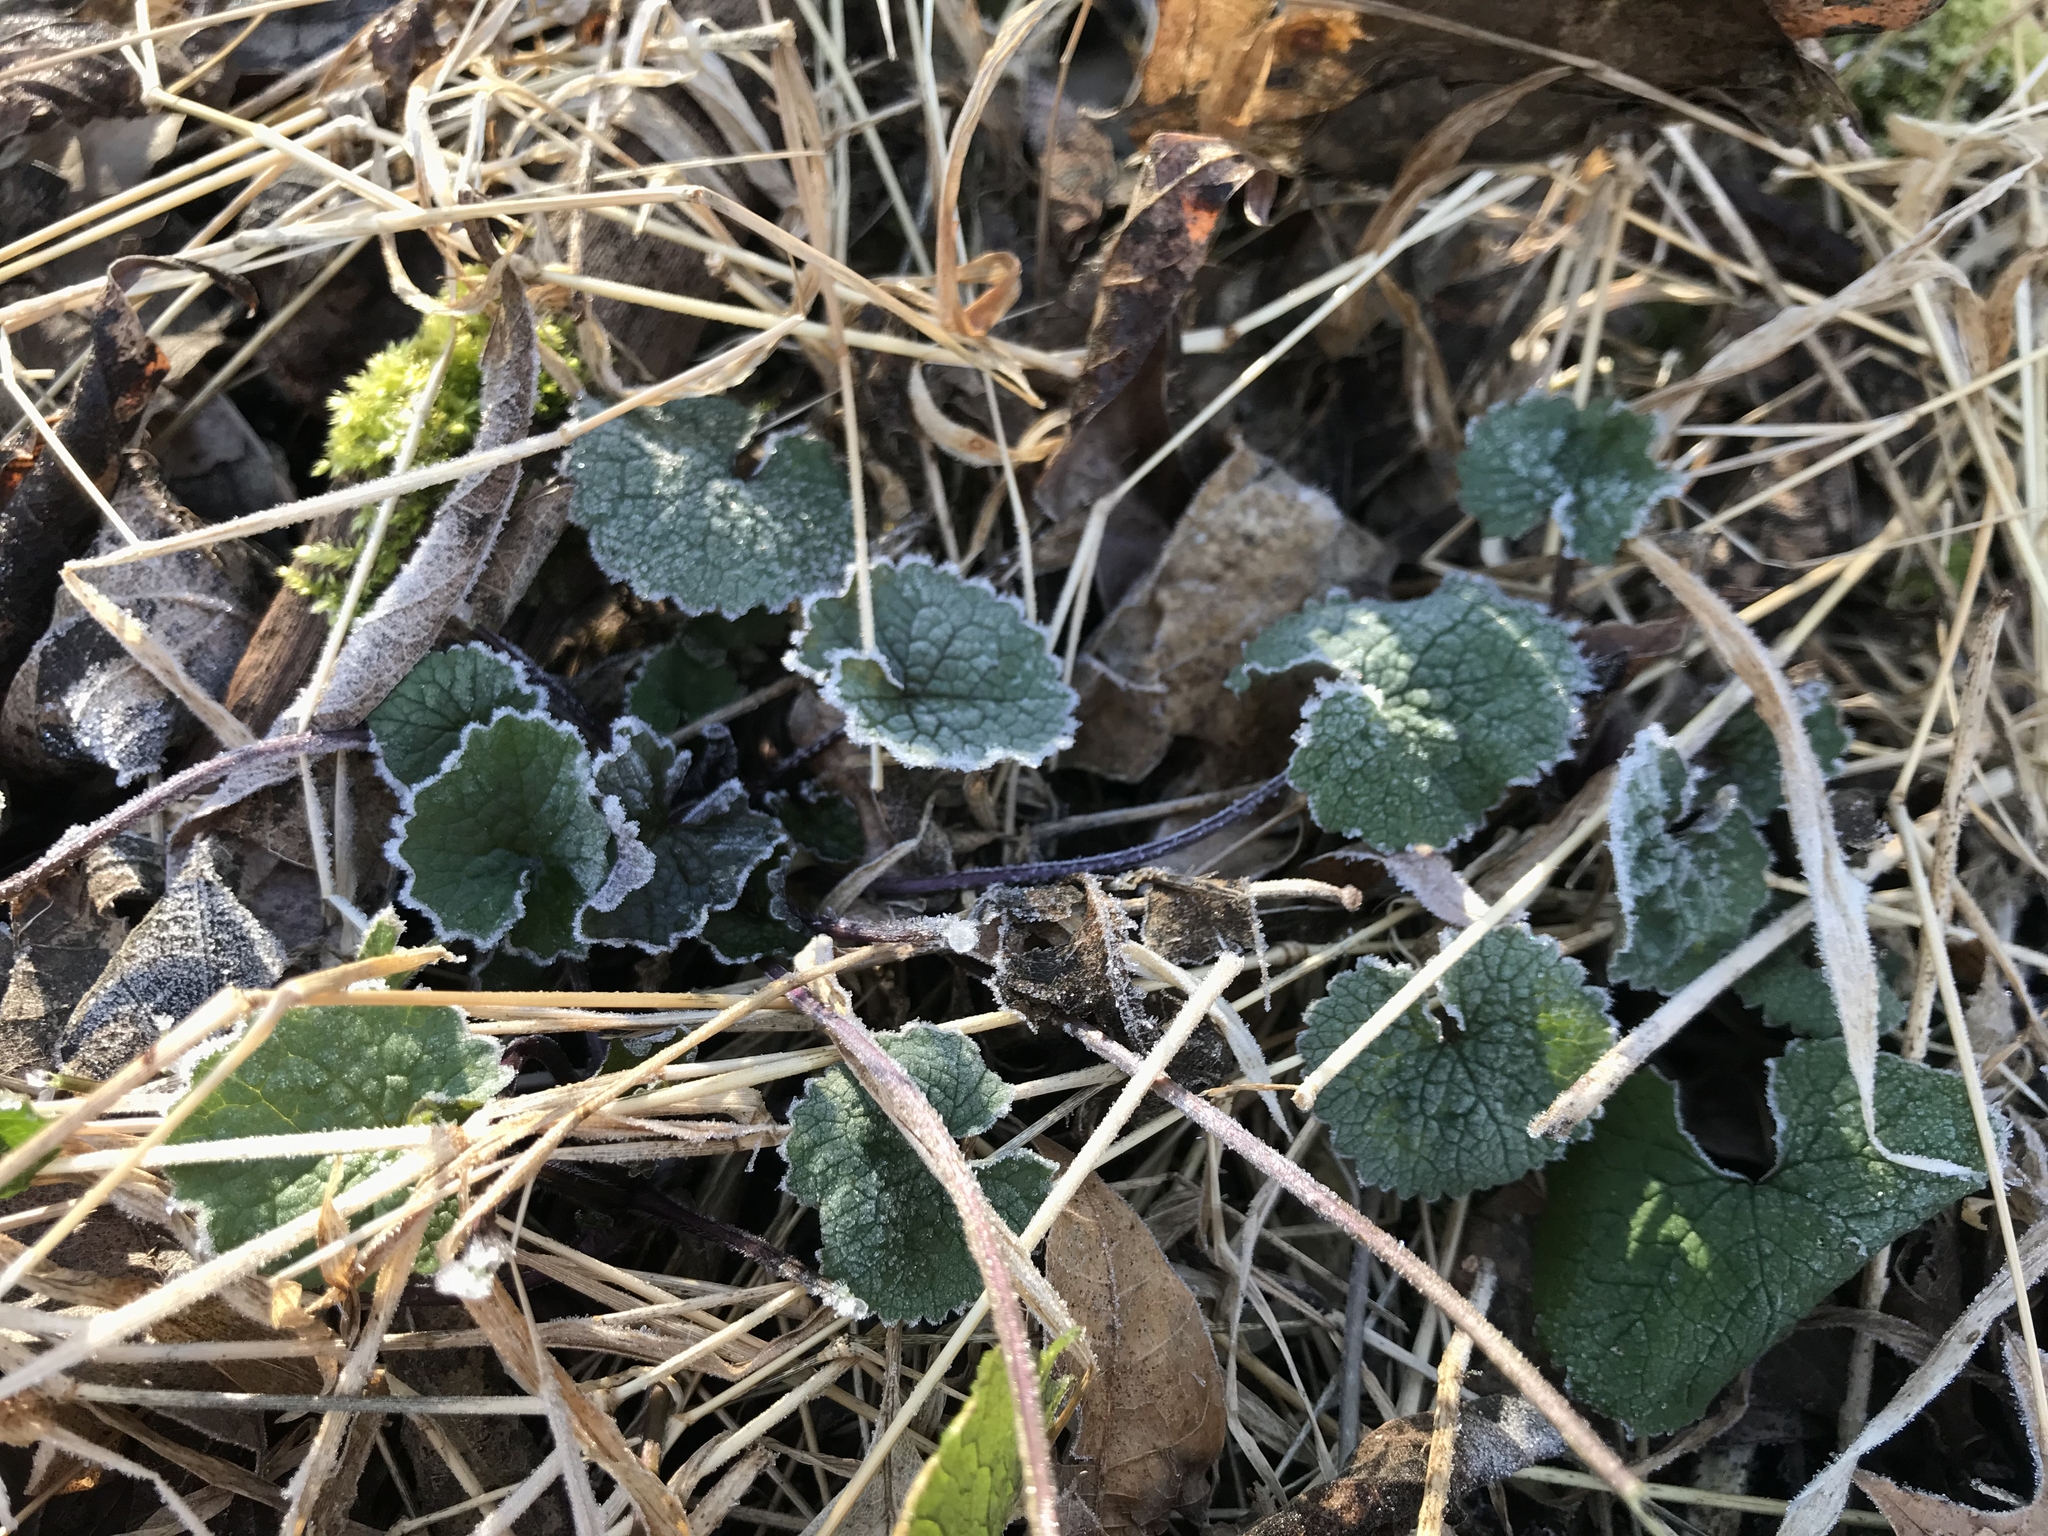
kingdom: Plantae
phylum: Tracheophyta
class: Magnoliopsida
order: Brassicales
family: Brassicaceae
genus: Alliaria
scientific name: Alliaria petiolata
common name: Garlic mustard
